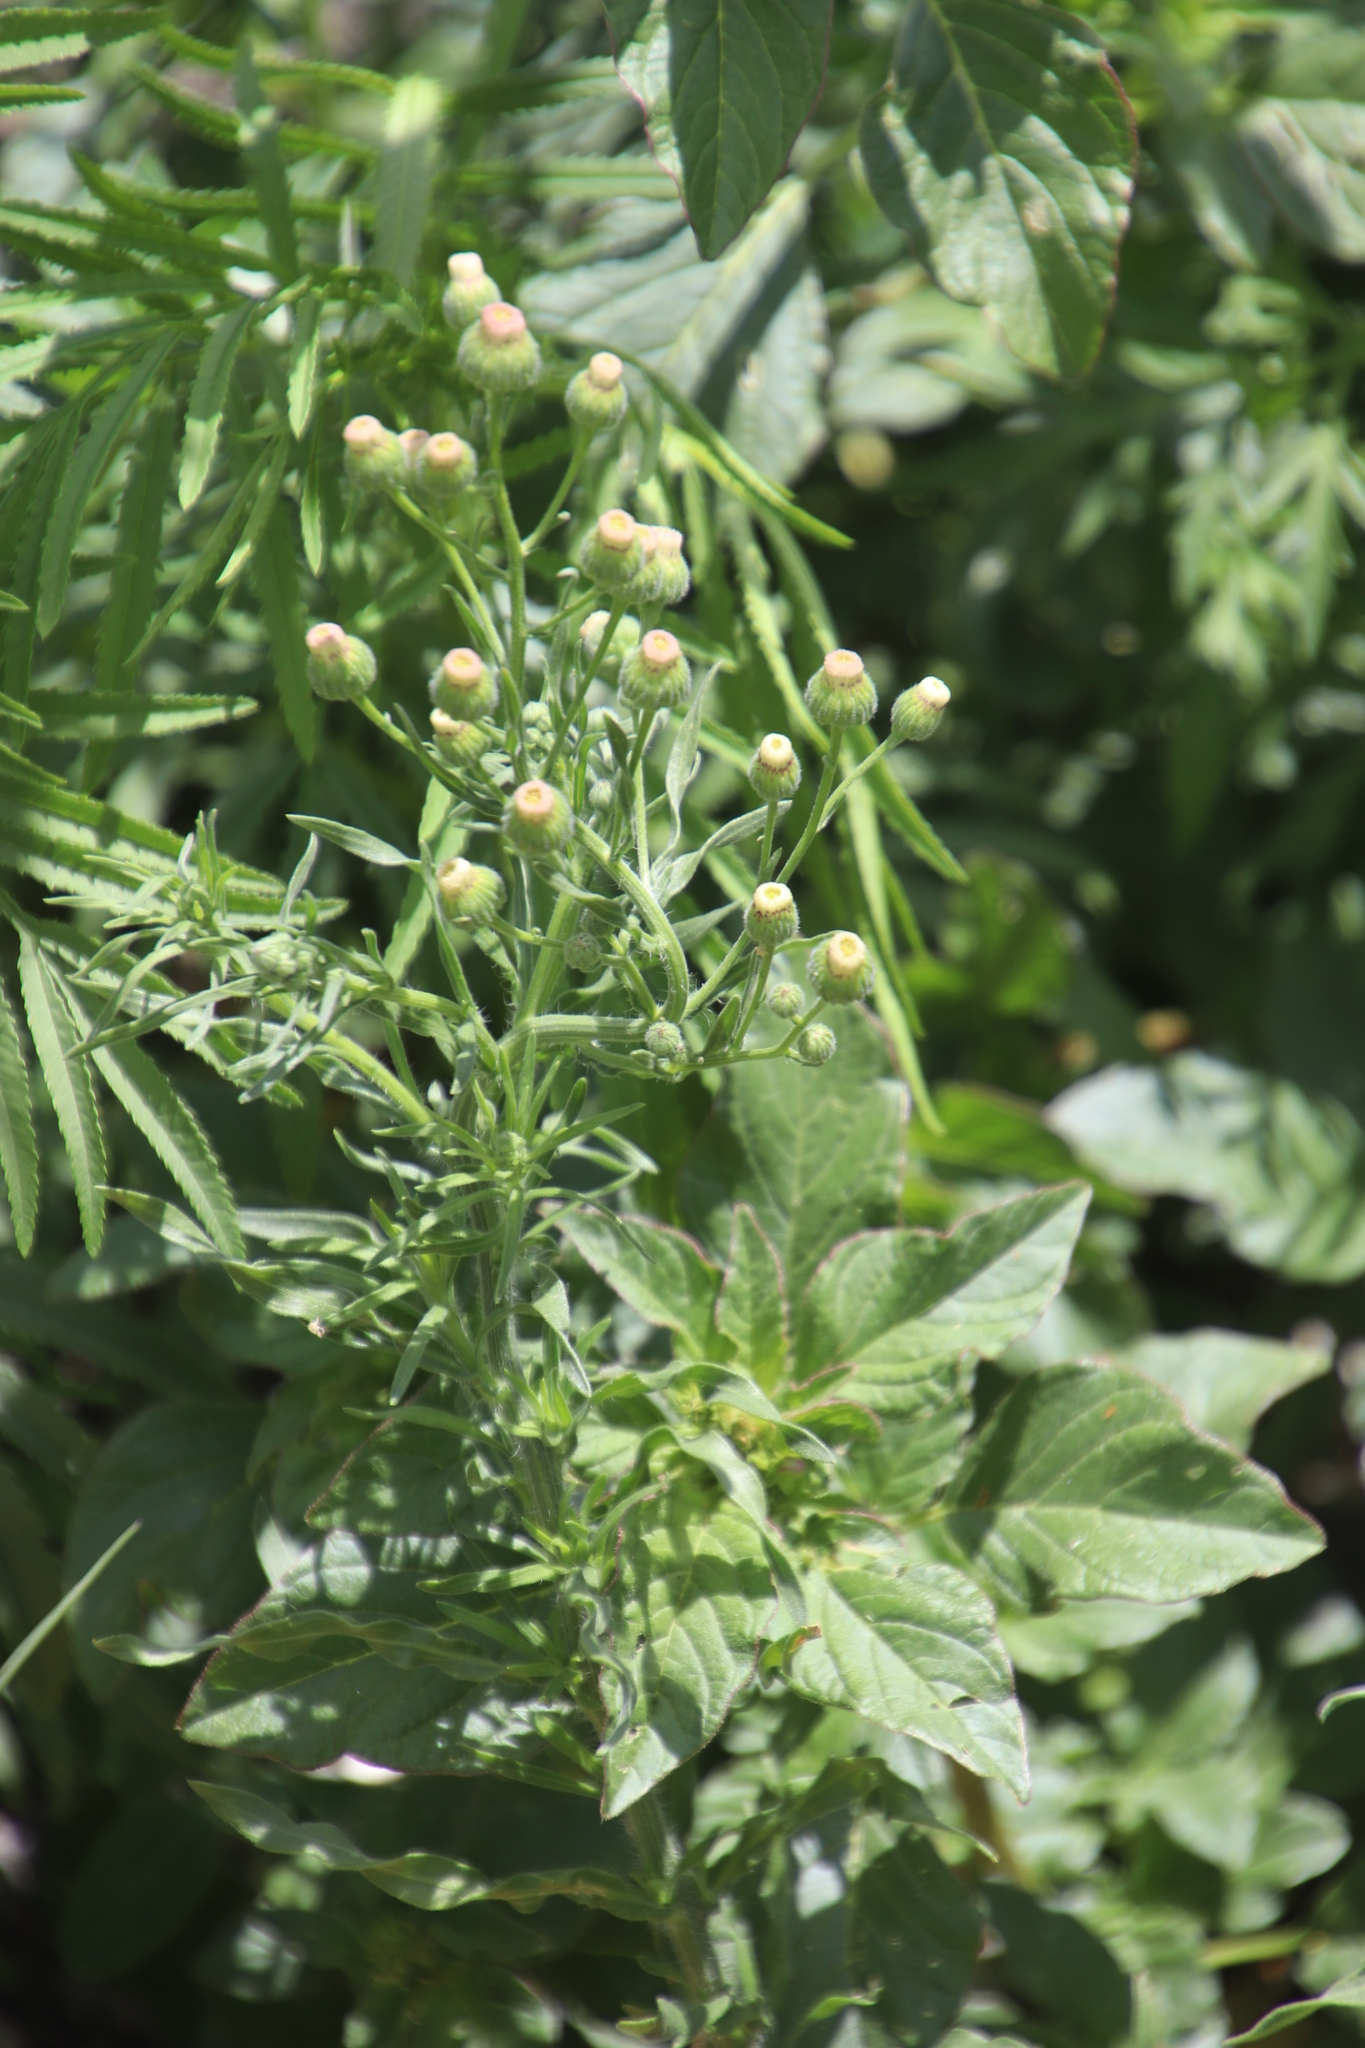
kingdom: Plantae
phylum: Tracheophyta
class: Magnoliopsida
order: Asterales
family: Asteraceae
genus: Erigeron
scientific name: Erigeron bonariensis
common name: Argentine fleabane
